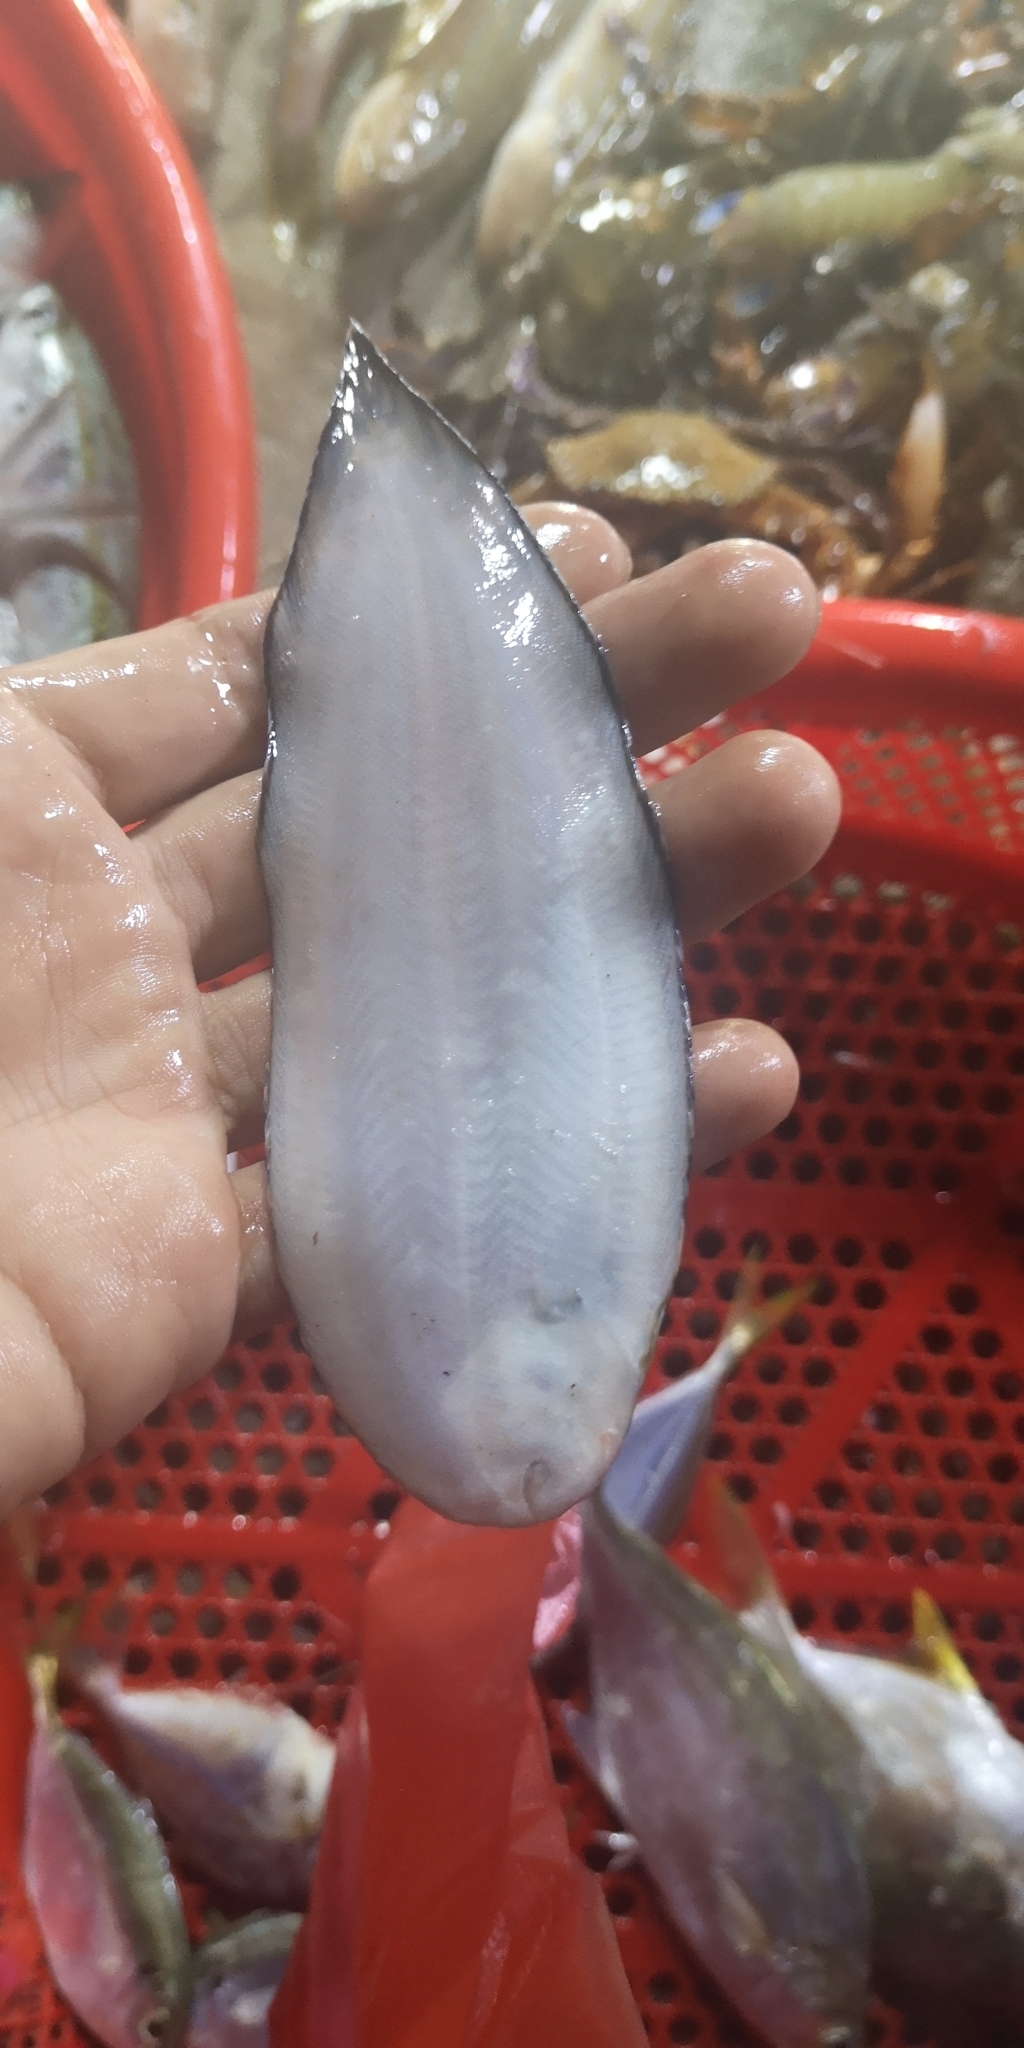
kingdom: Animalia
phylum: Chordata
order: Pleuronectiformes
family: Soleidae
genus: Zebrias
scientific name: Zebrias zebrinus
